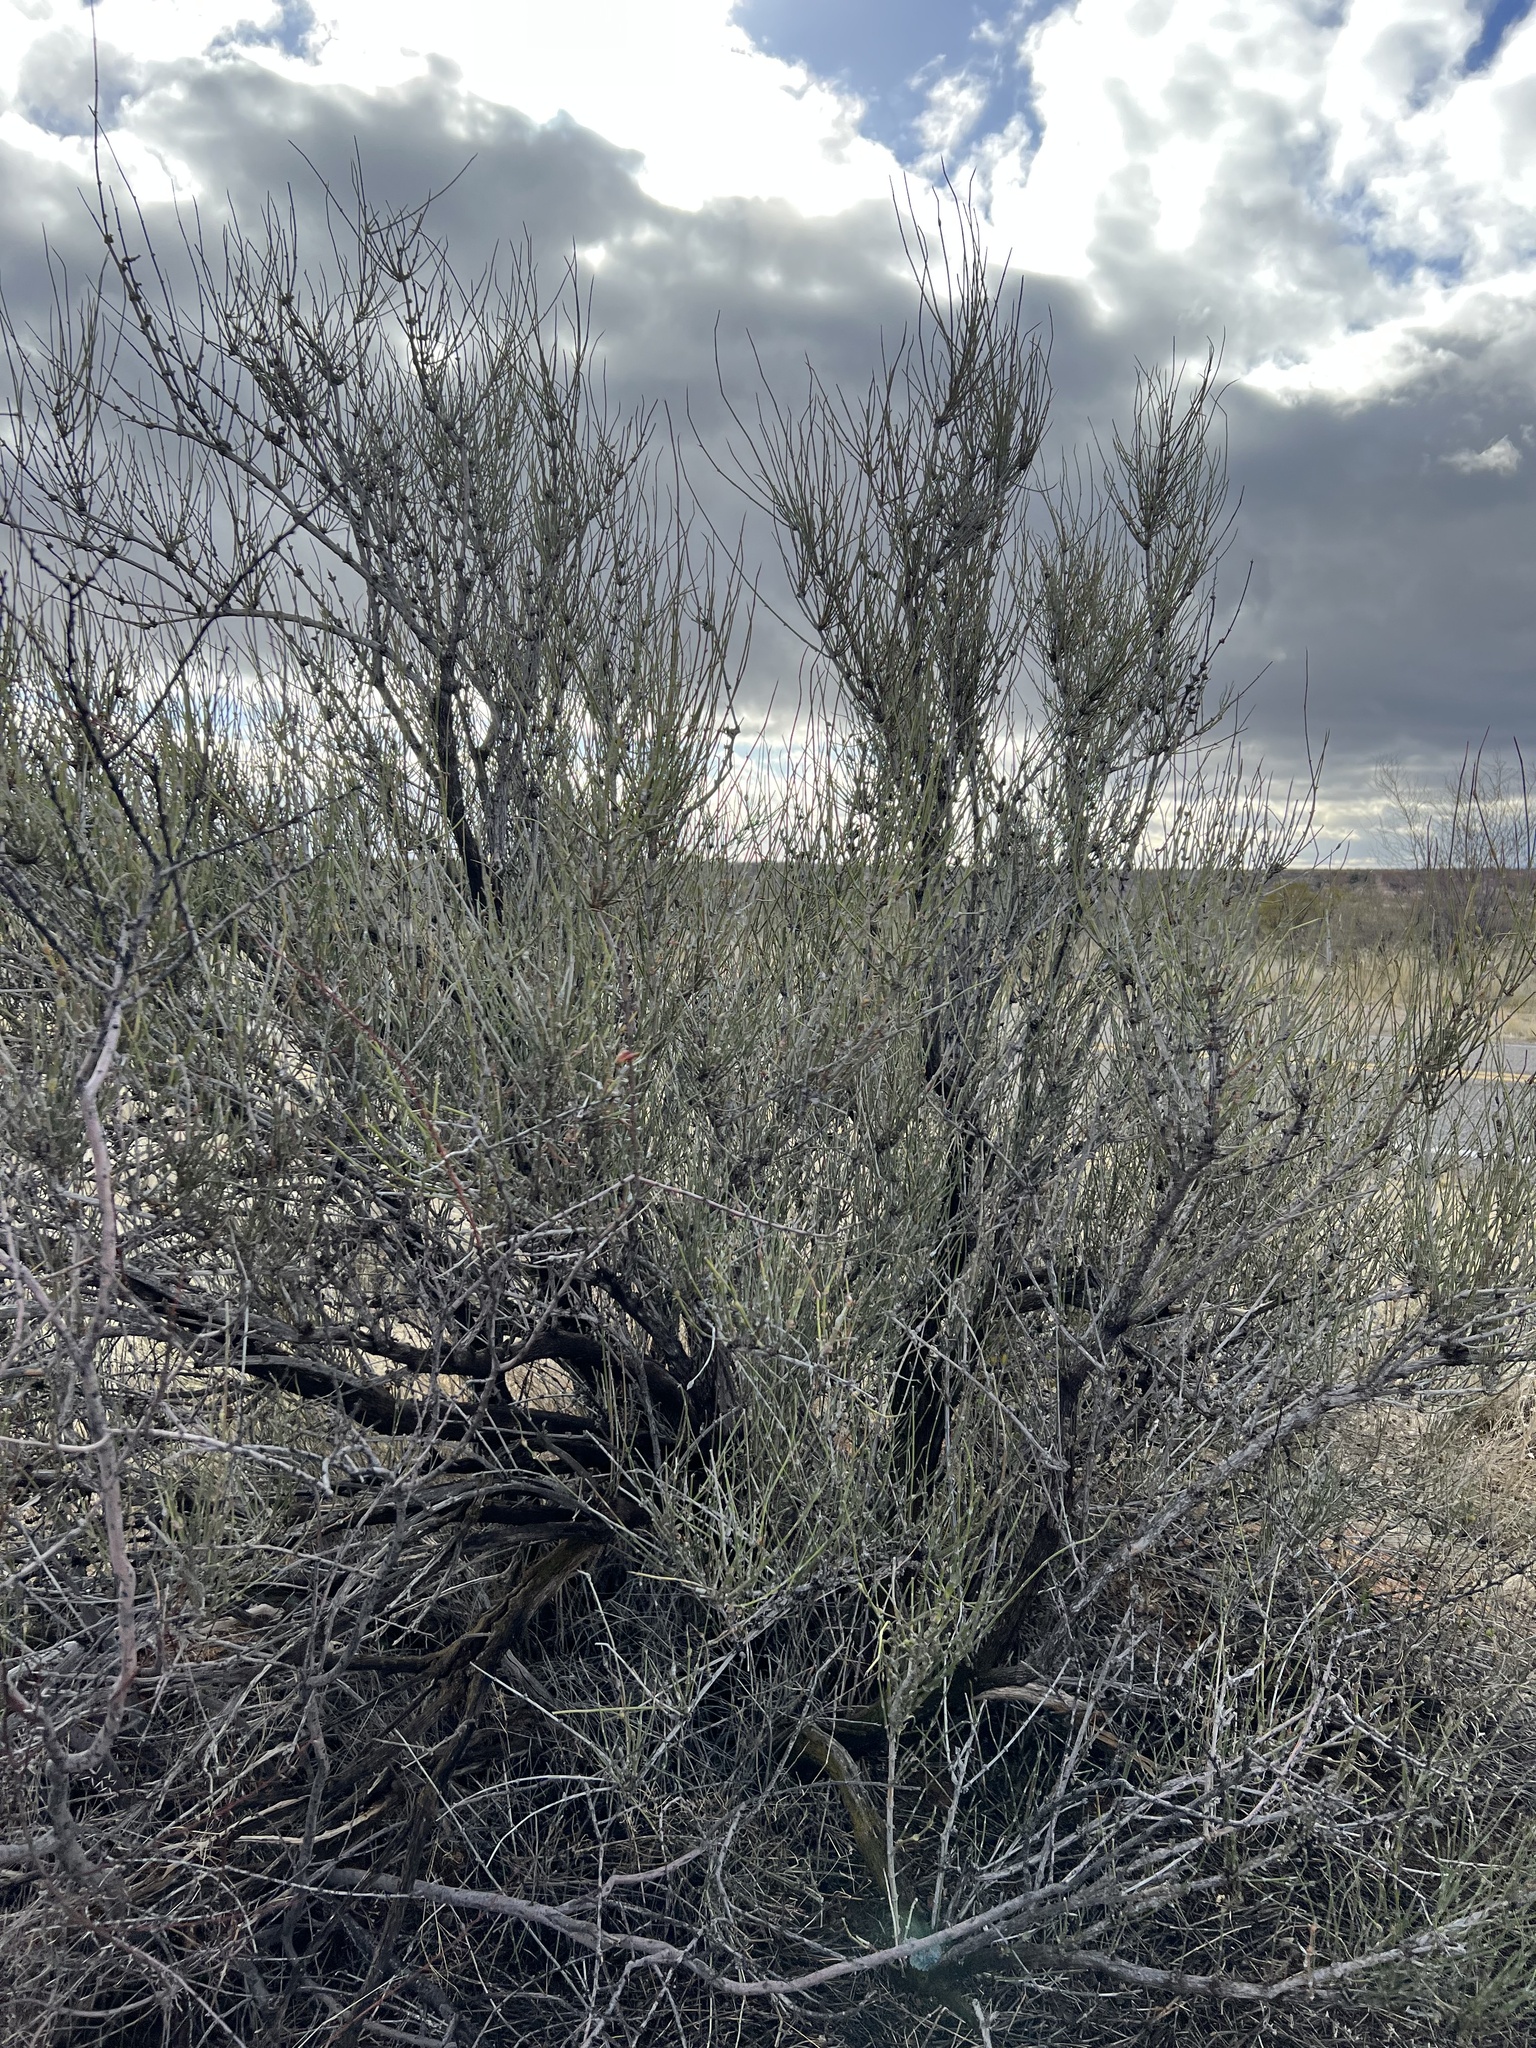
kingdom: Plantae
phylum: Tracheophyta
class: Gnetopsida
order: Ephedrales
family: Ephedraceae
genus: Ephedra
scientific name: Ephedra trifurca
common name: Mexican-tea
